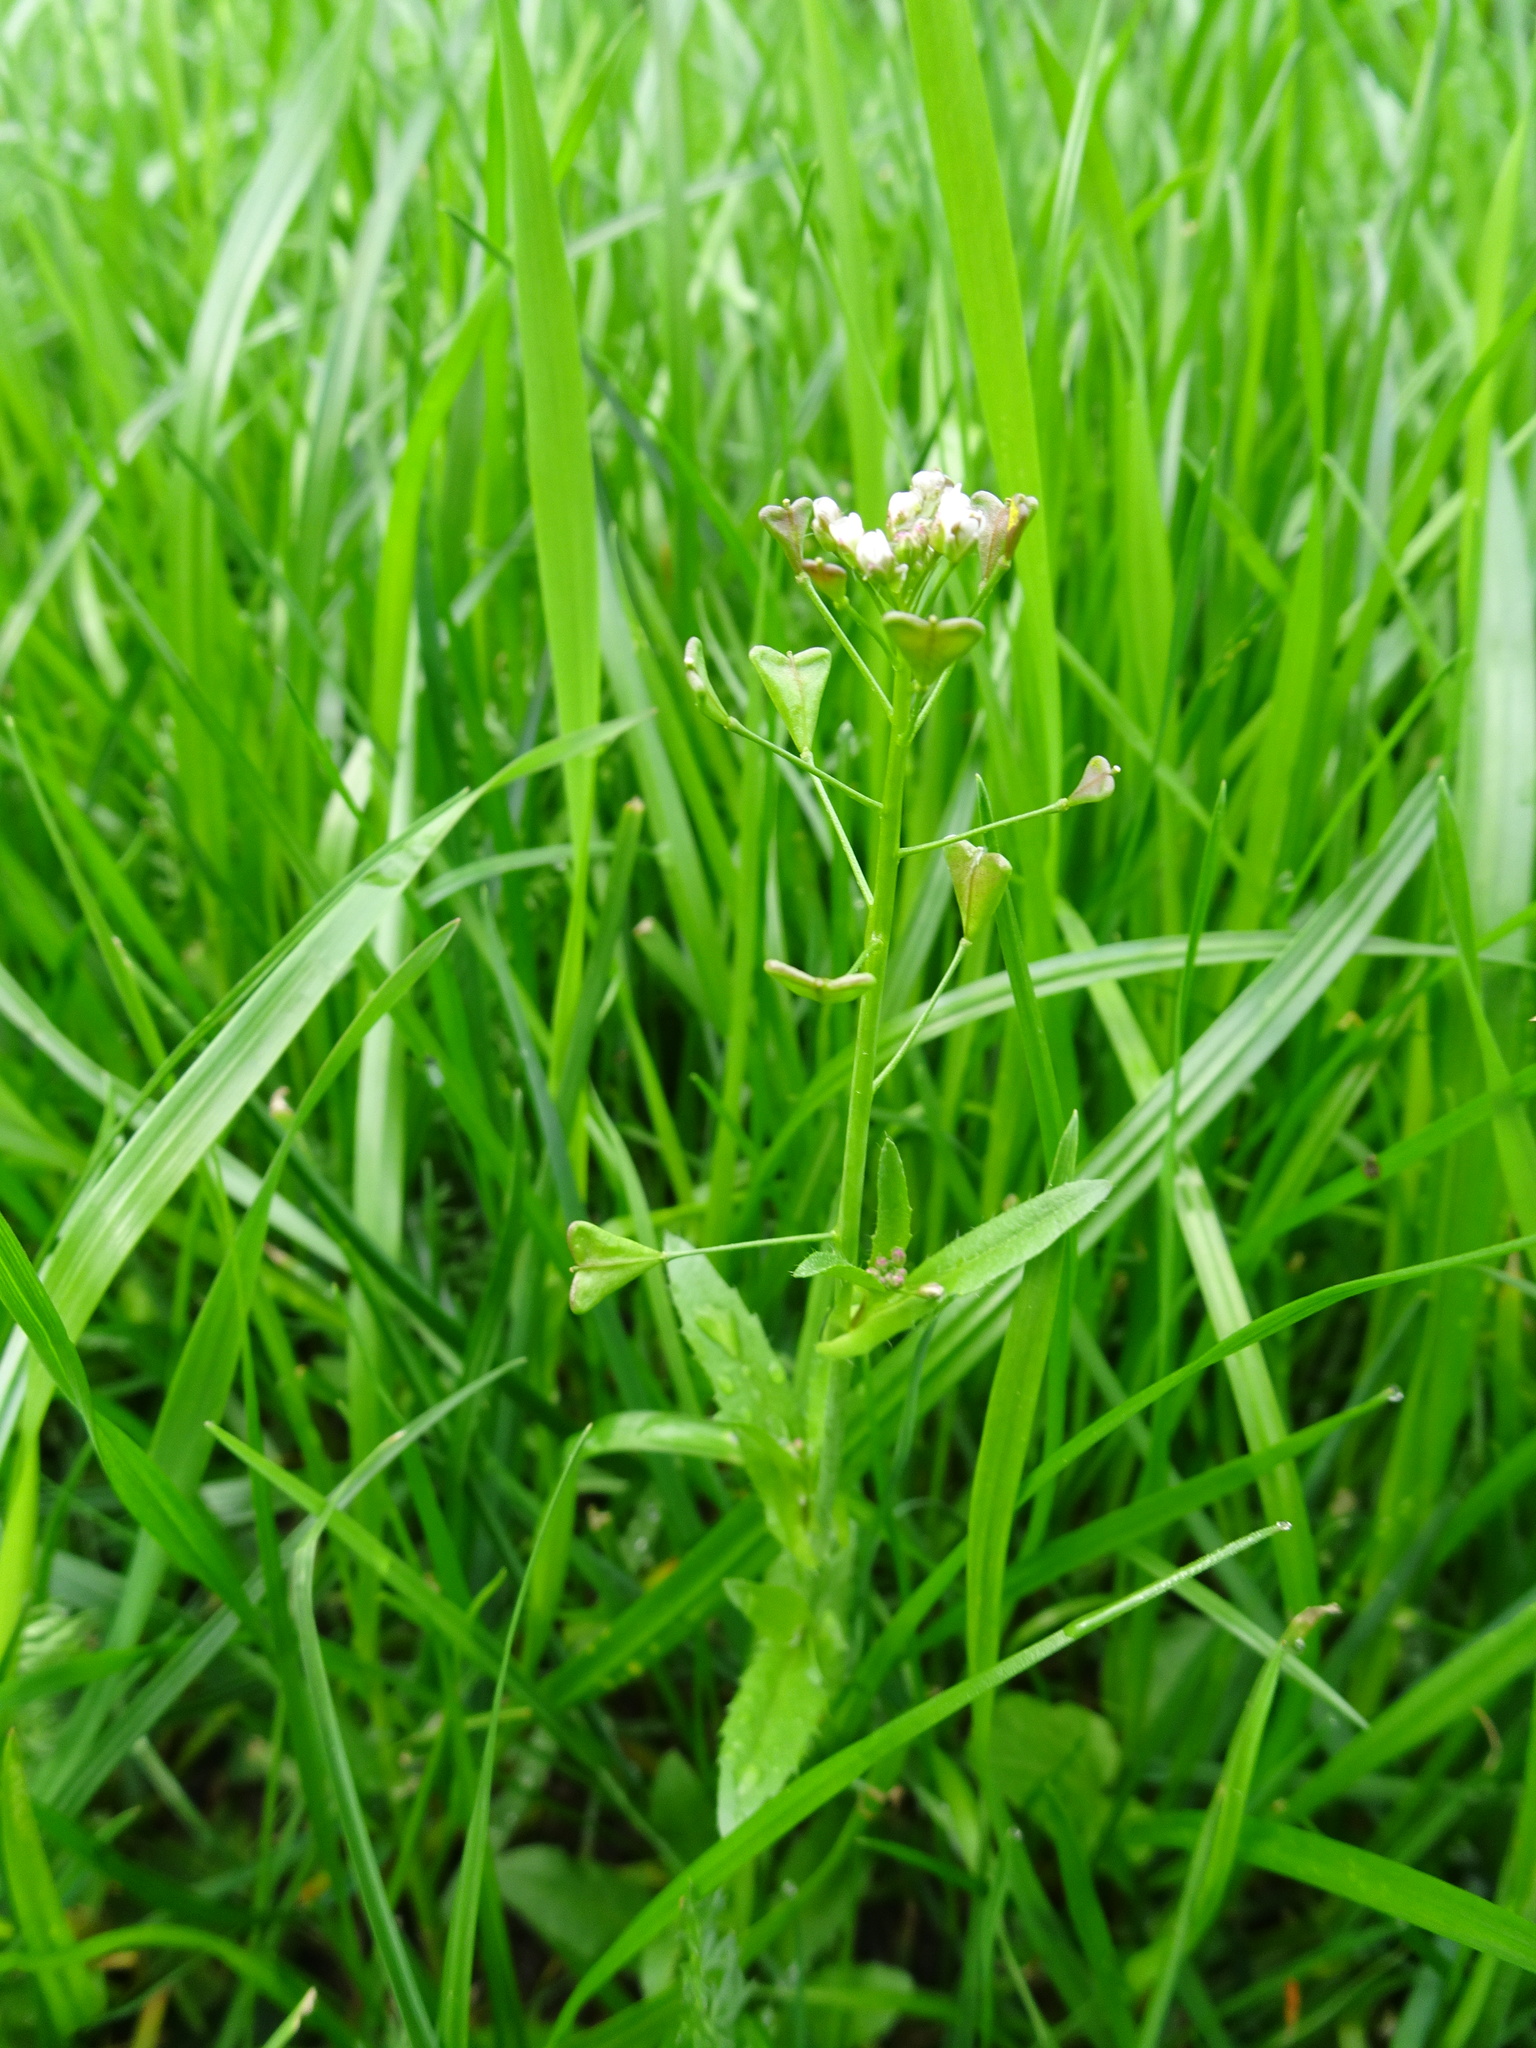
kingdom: Plantae
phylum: Tracheophyta
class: Magnoliopsida
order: Brassicales
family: Brassicaceae
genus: Capsella
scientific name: Capsella bursa-pastoris
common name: Shepherd's purse
